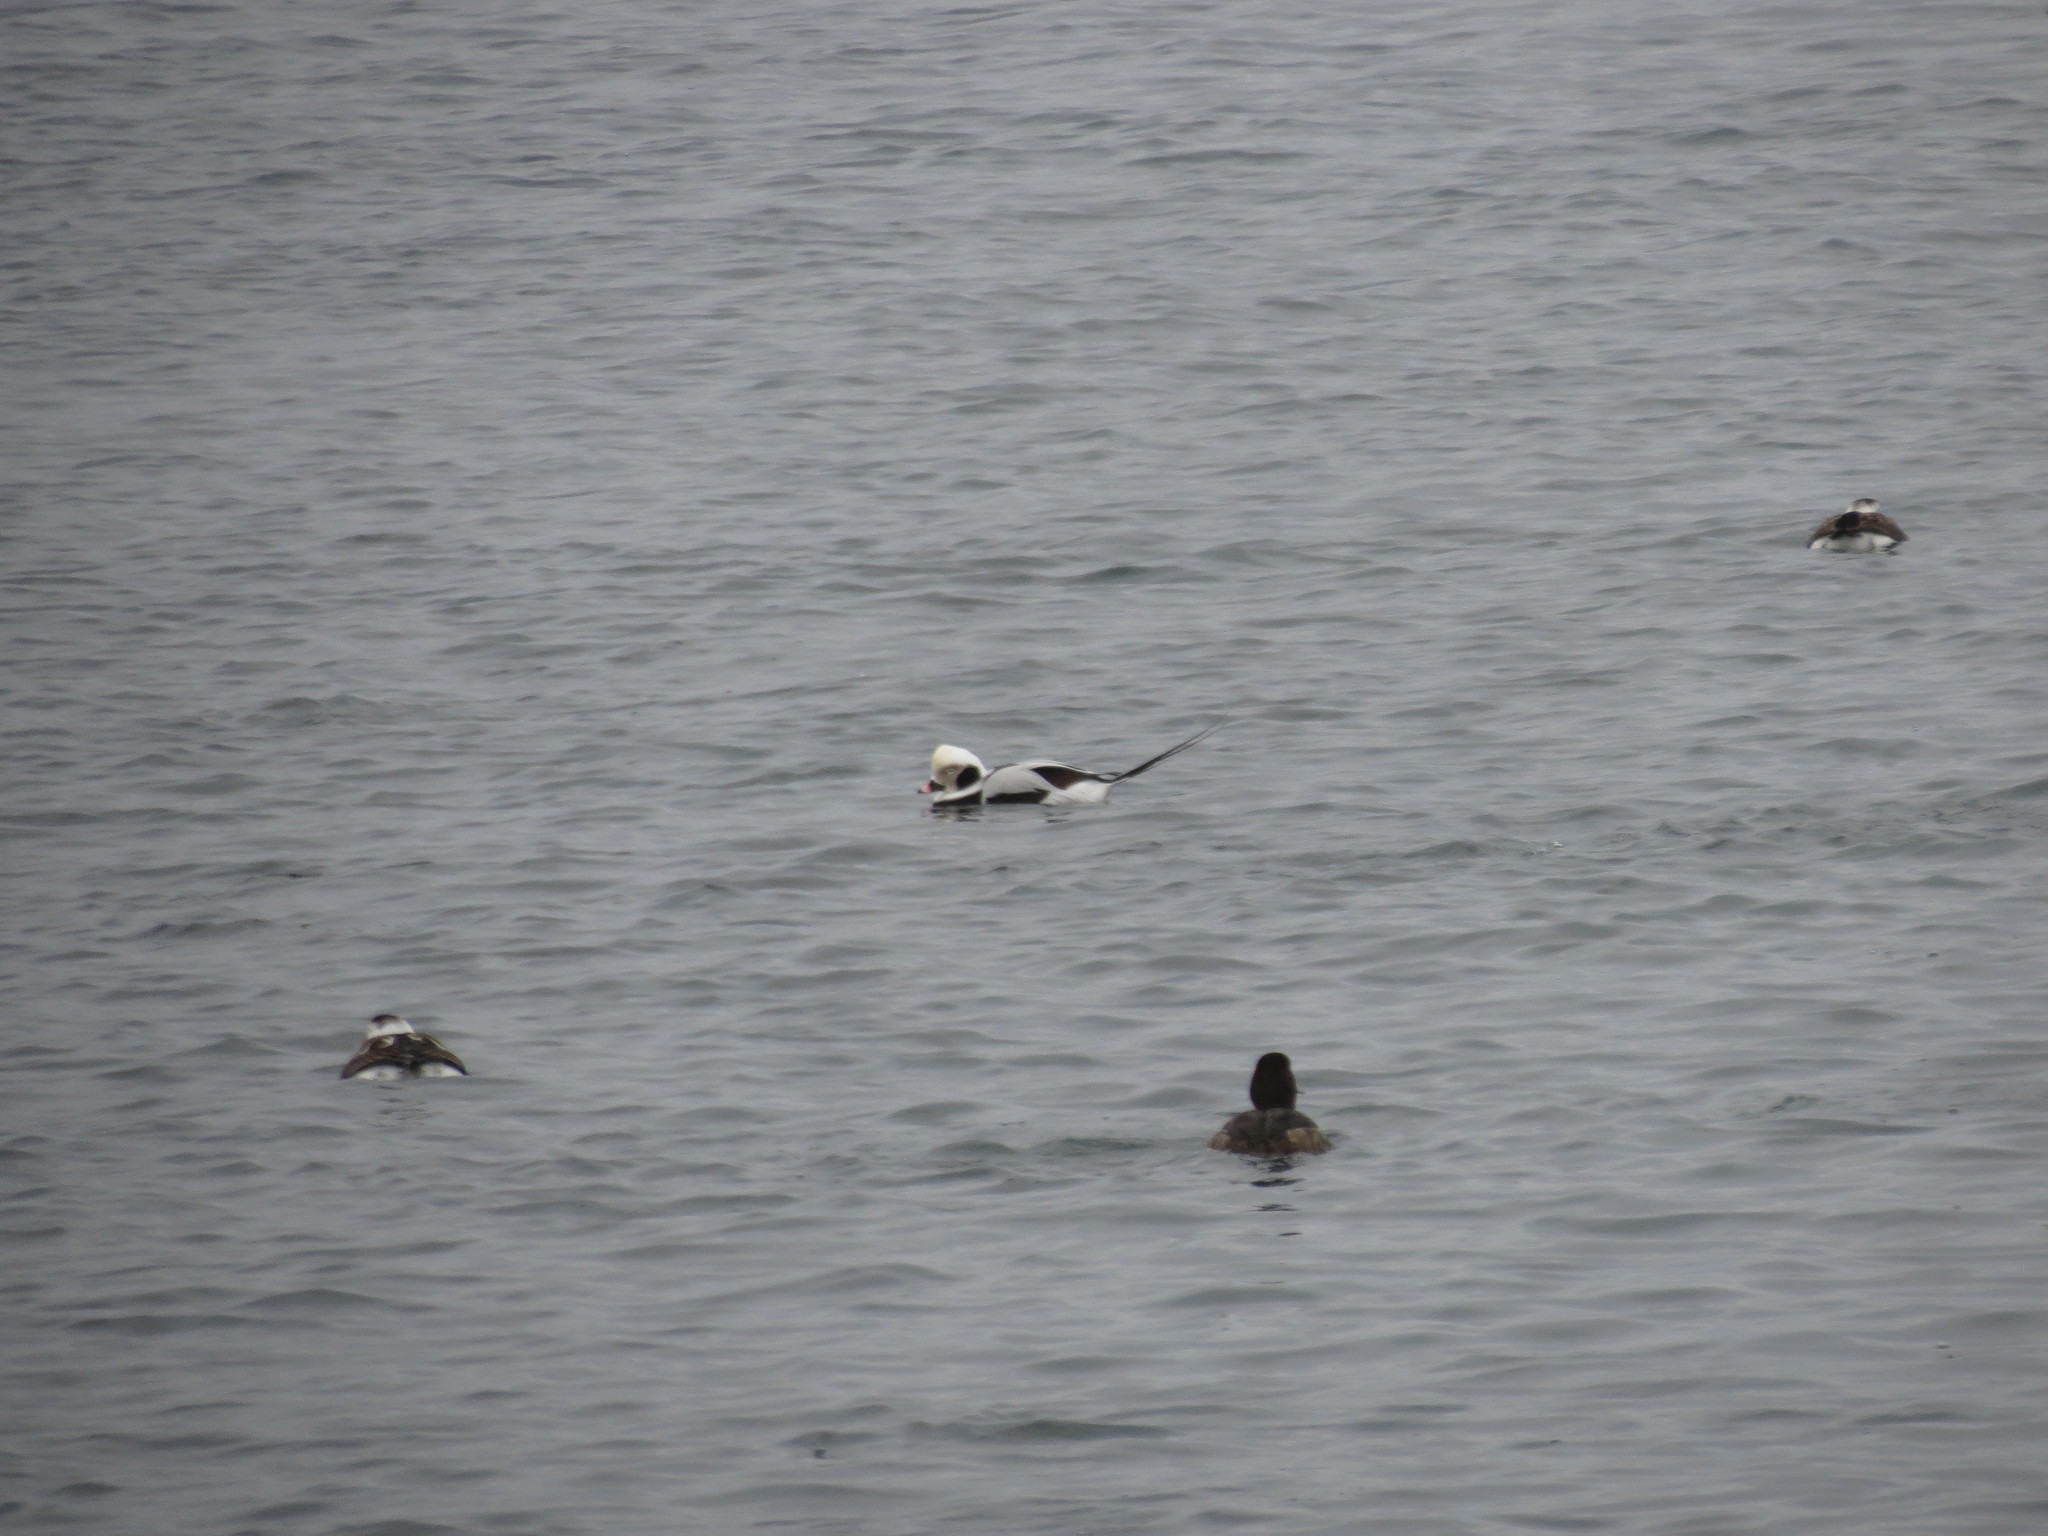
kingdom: Animalia
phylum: Chordata
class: Aves
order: Anseriformes
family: Anatidae
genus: Clangula
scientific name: Clangula hyemalis
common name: Long-tailed duck
